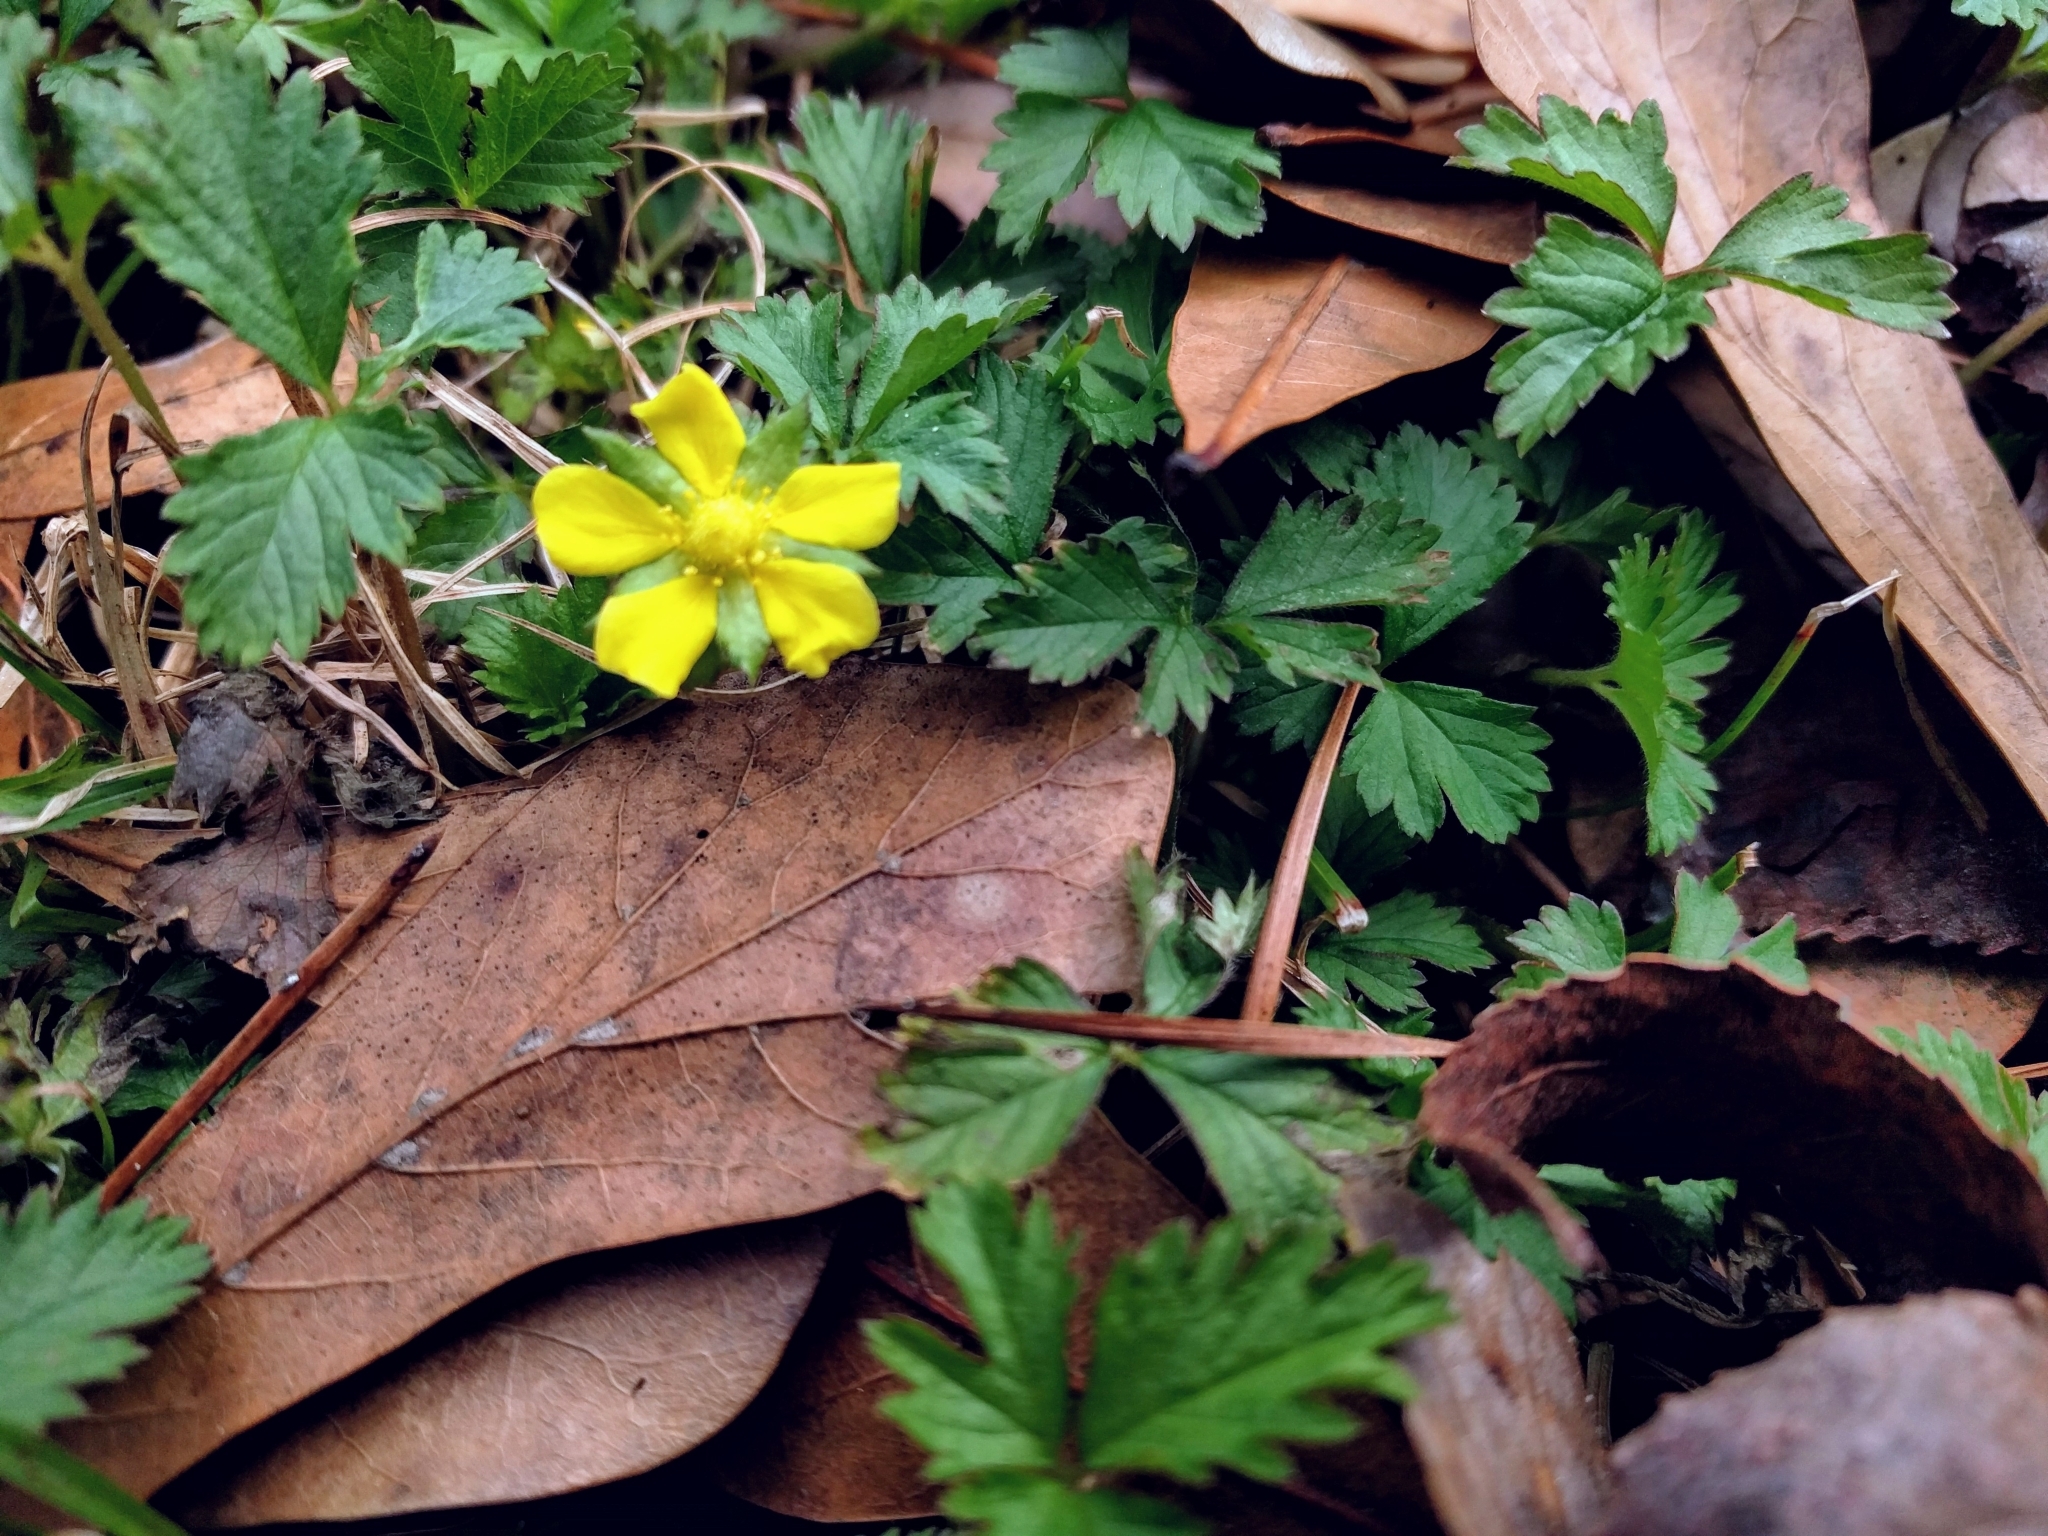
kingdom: Plantae
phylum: Tracheophyta
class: Magnoliopsida
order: Rosales
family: Rosaceae
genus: Potentilla
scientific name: Potentilla indica
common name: Yellow-flowered strawberry
